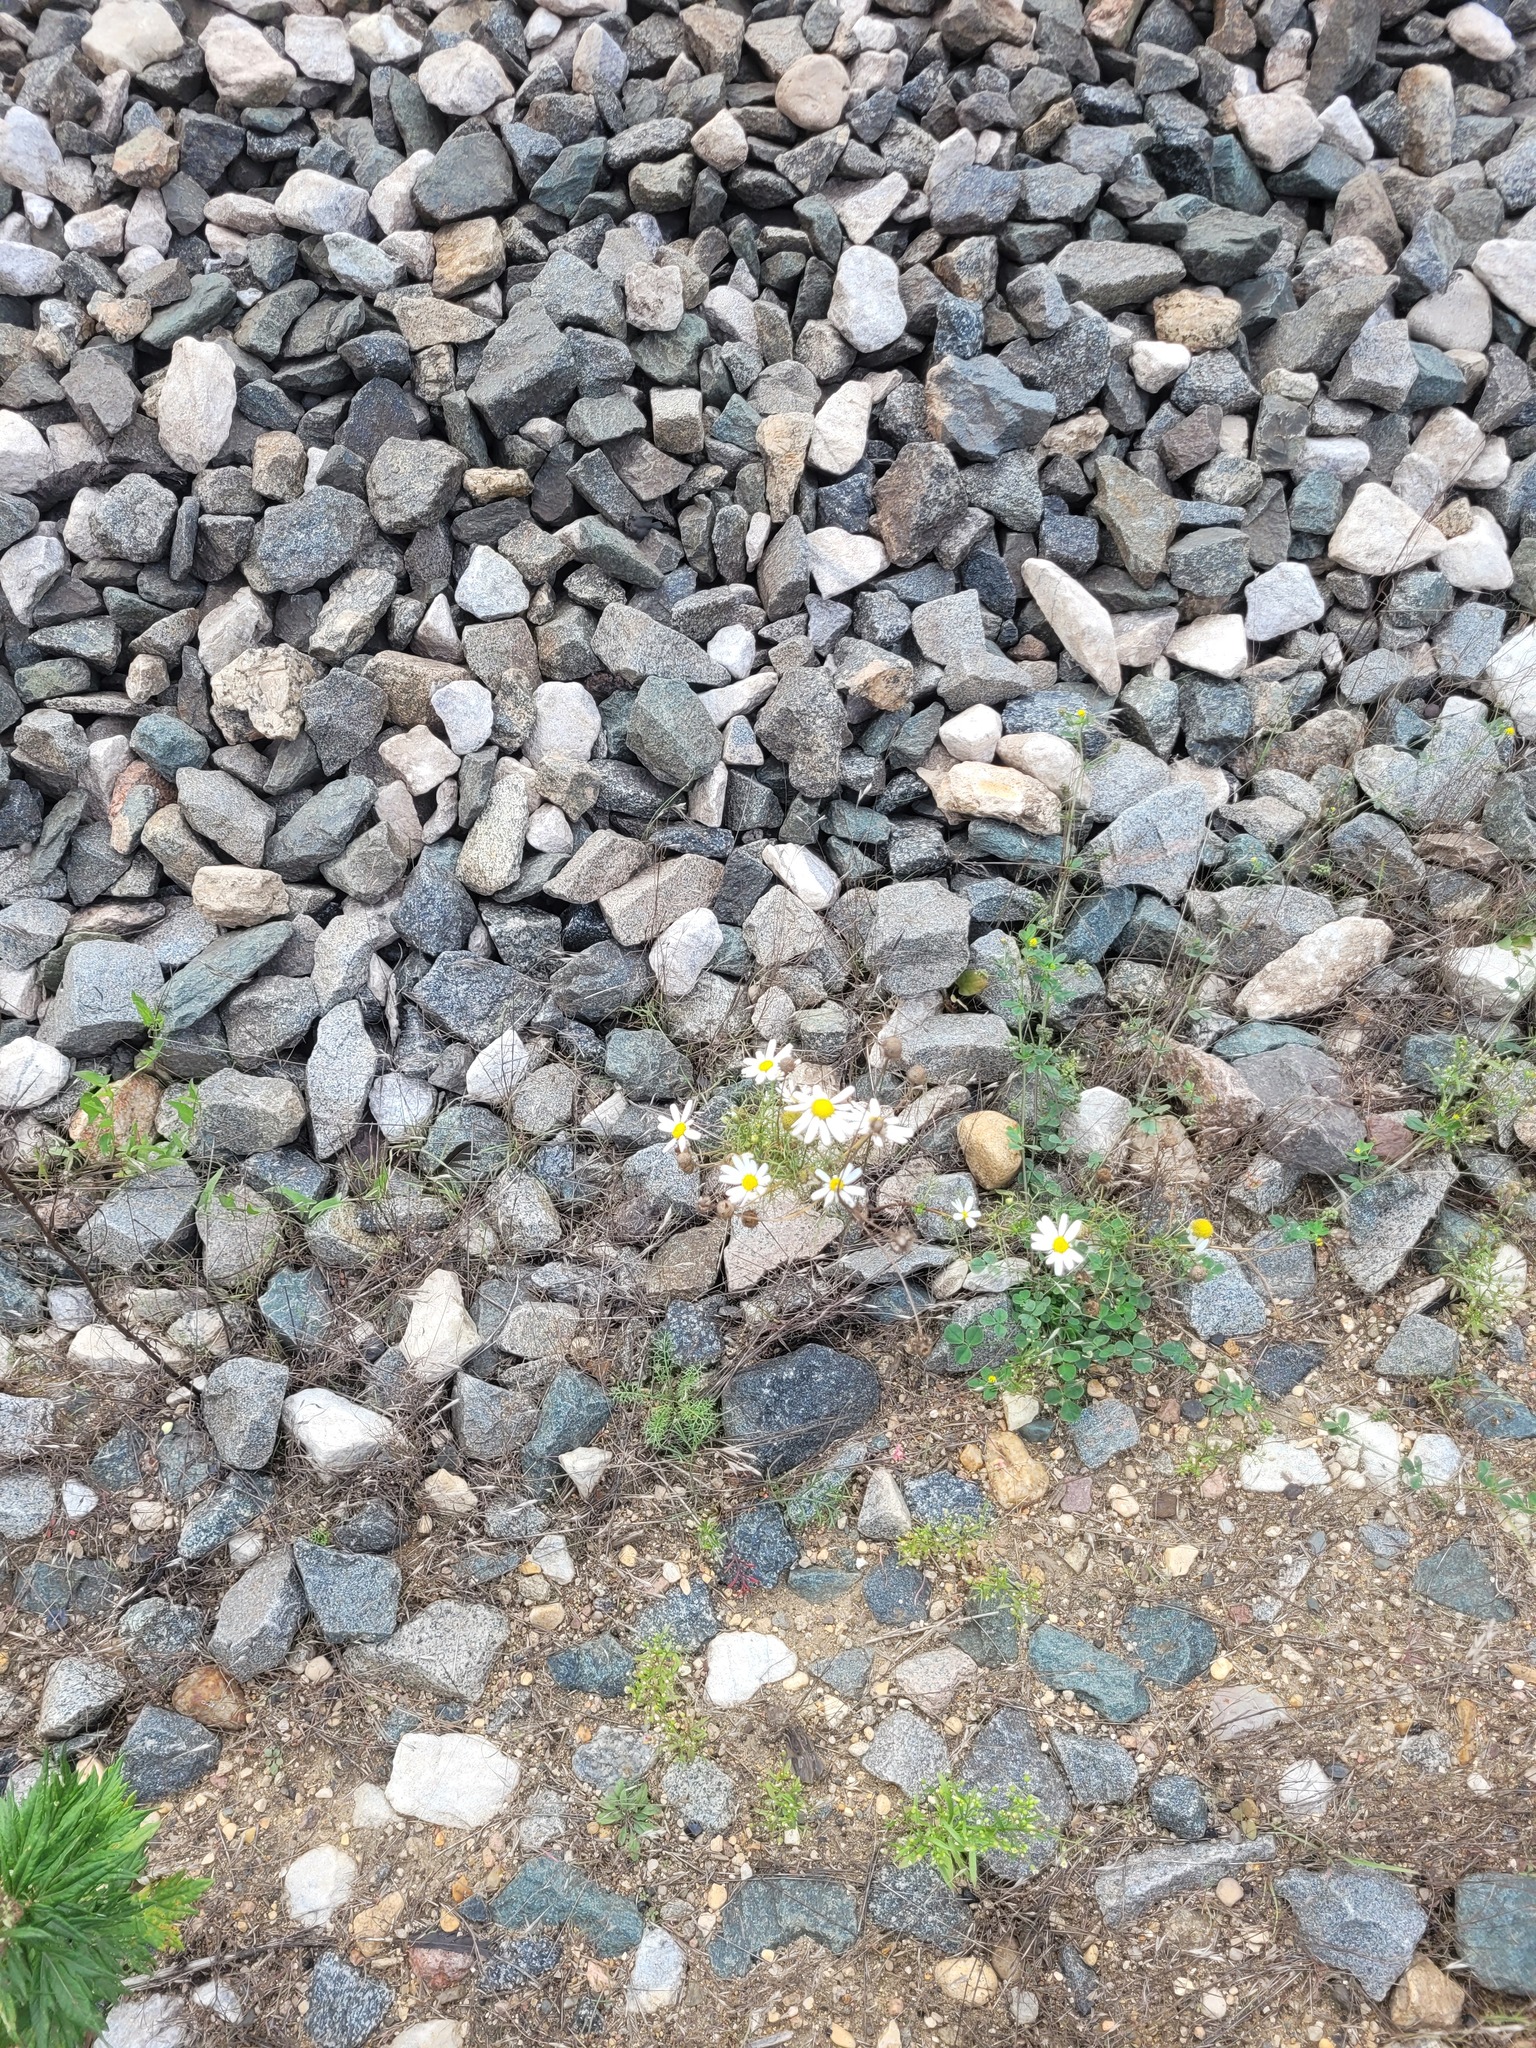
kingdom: Plantae
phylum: Tracheophyta
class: Magnoliopsida
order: Asterales
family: Asteraceae
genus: Tripleurospermum
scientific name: Tripleurospermum inodorum
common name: Scentless mayweed
